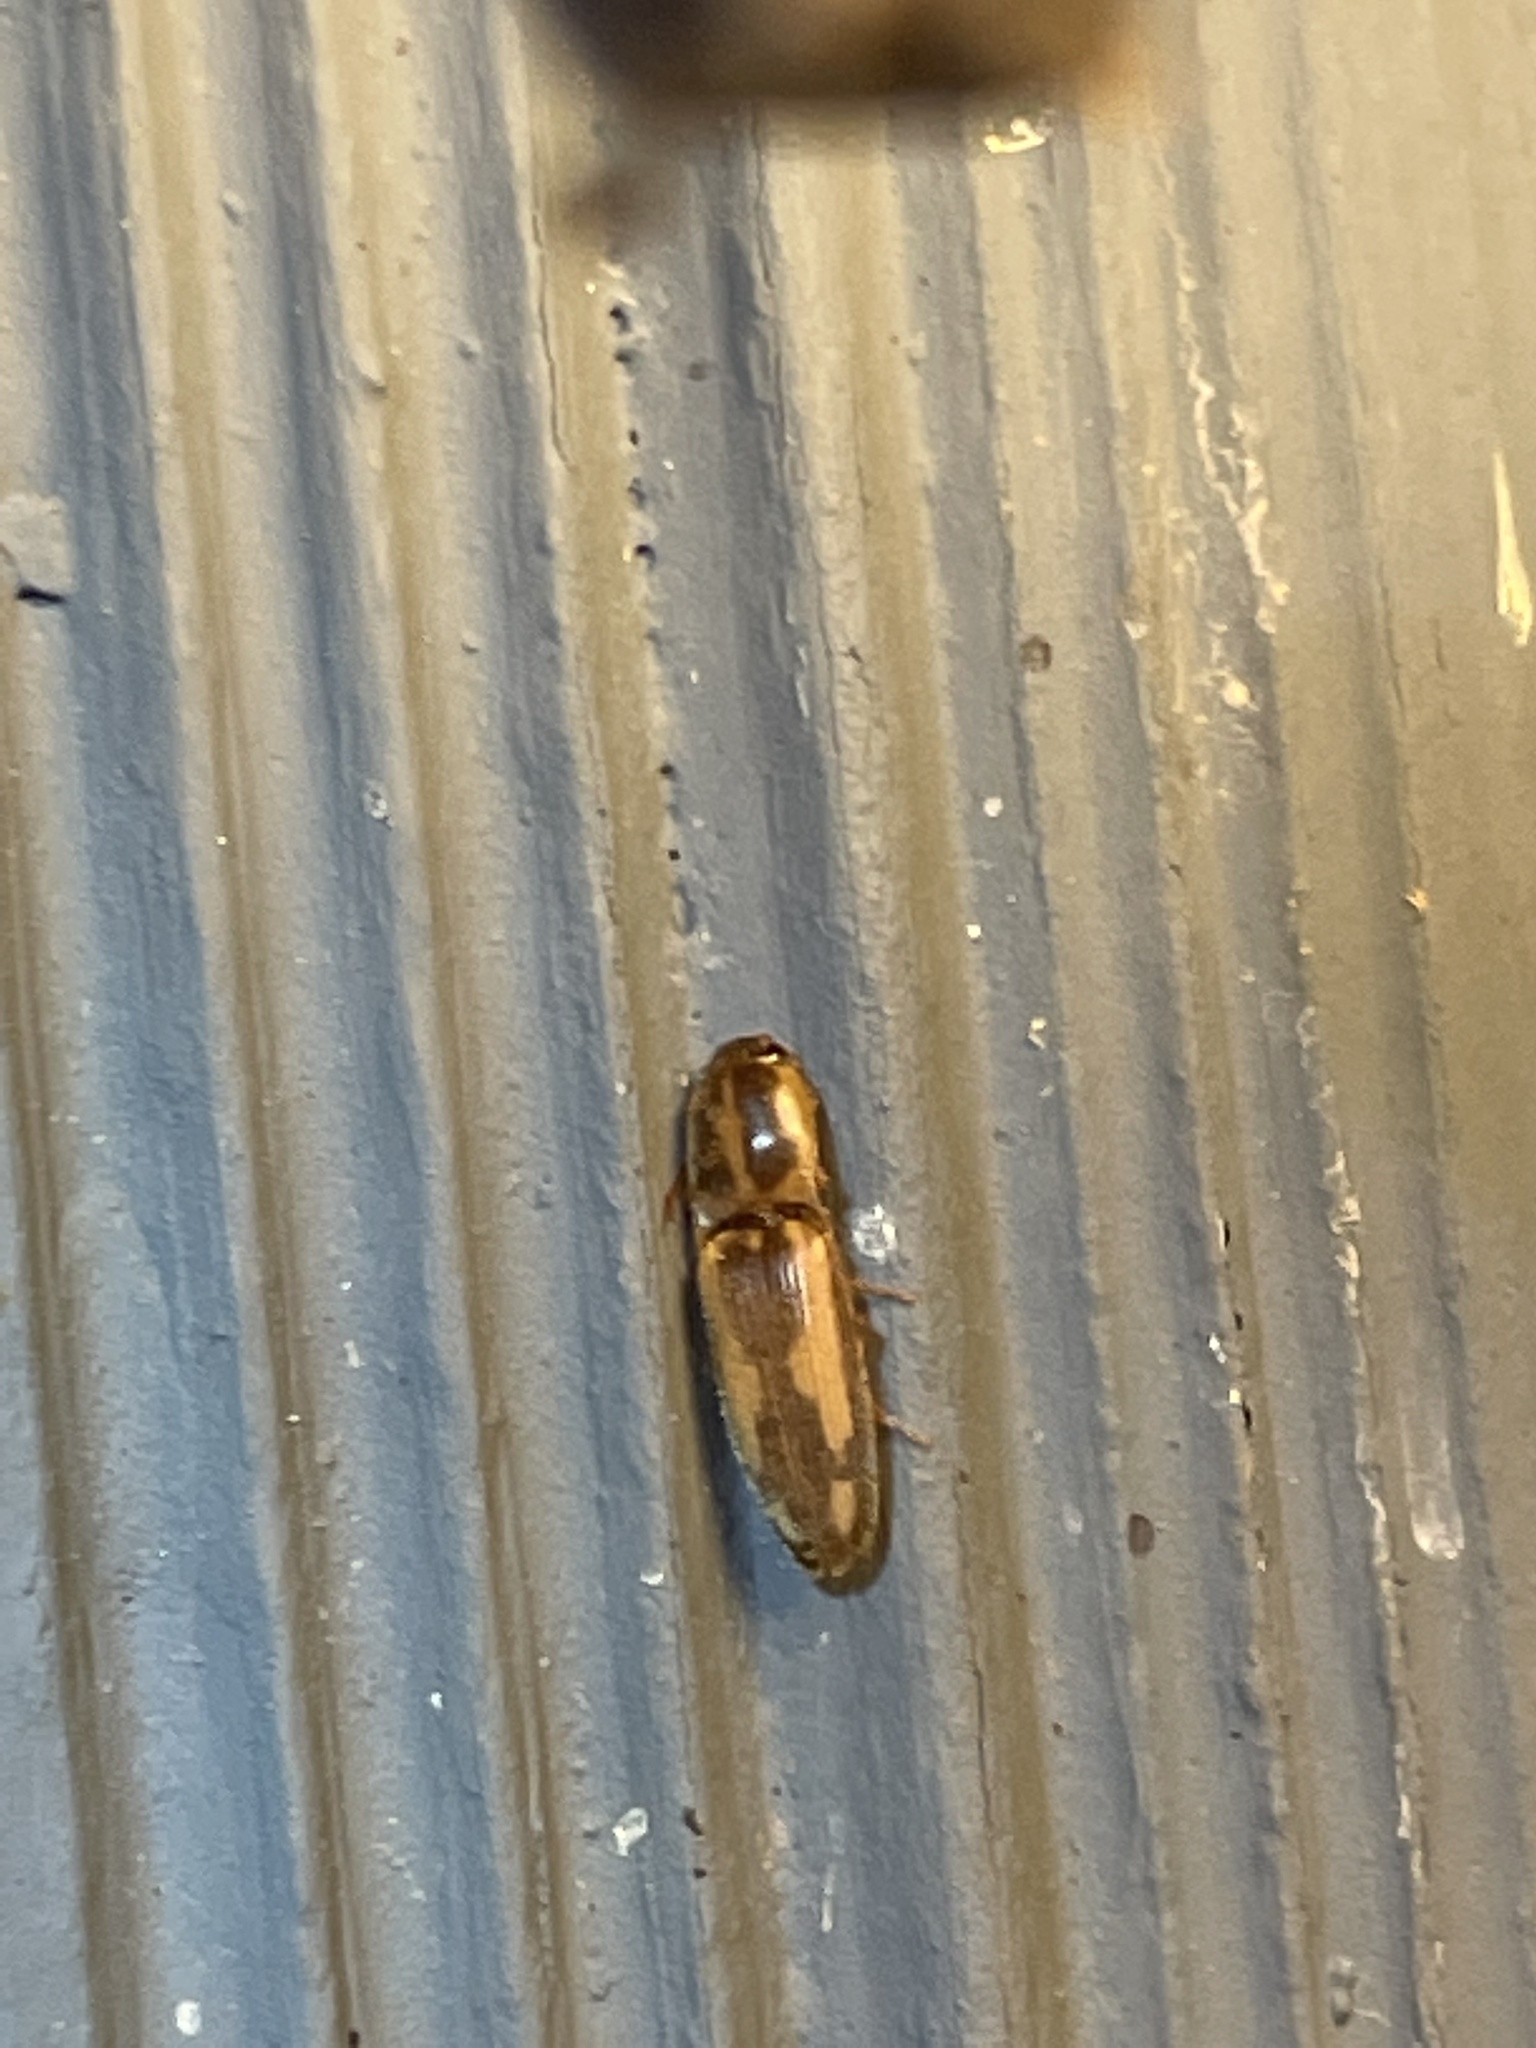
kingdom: Animalia
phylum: Arthropoda
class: Insecta
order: Coleoptera
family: Elateridae
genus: Monocrepidius
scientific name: Monocrepidius
